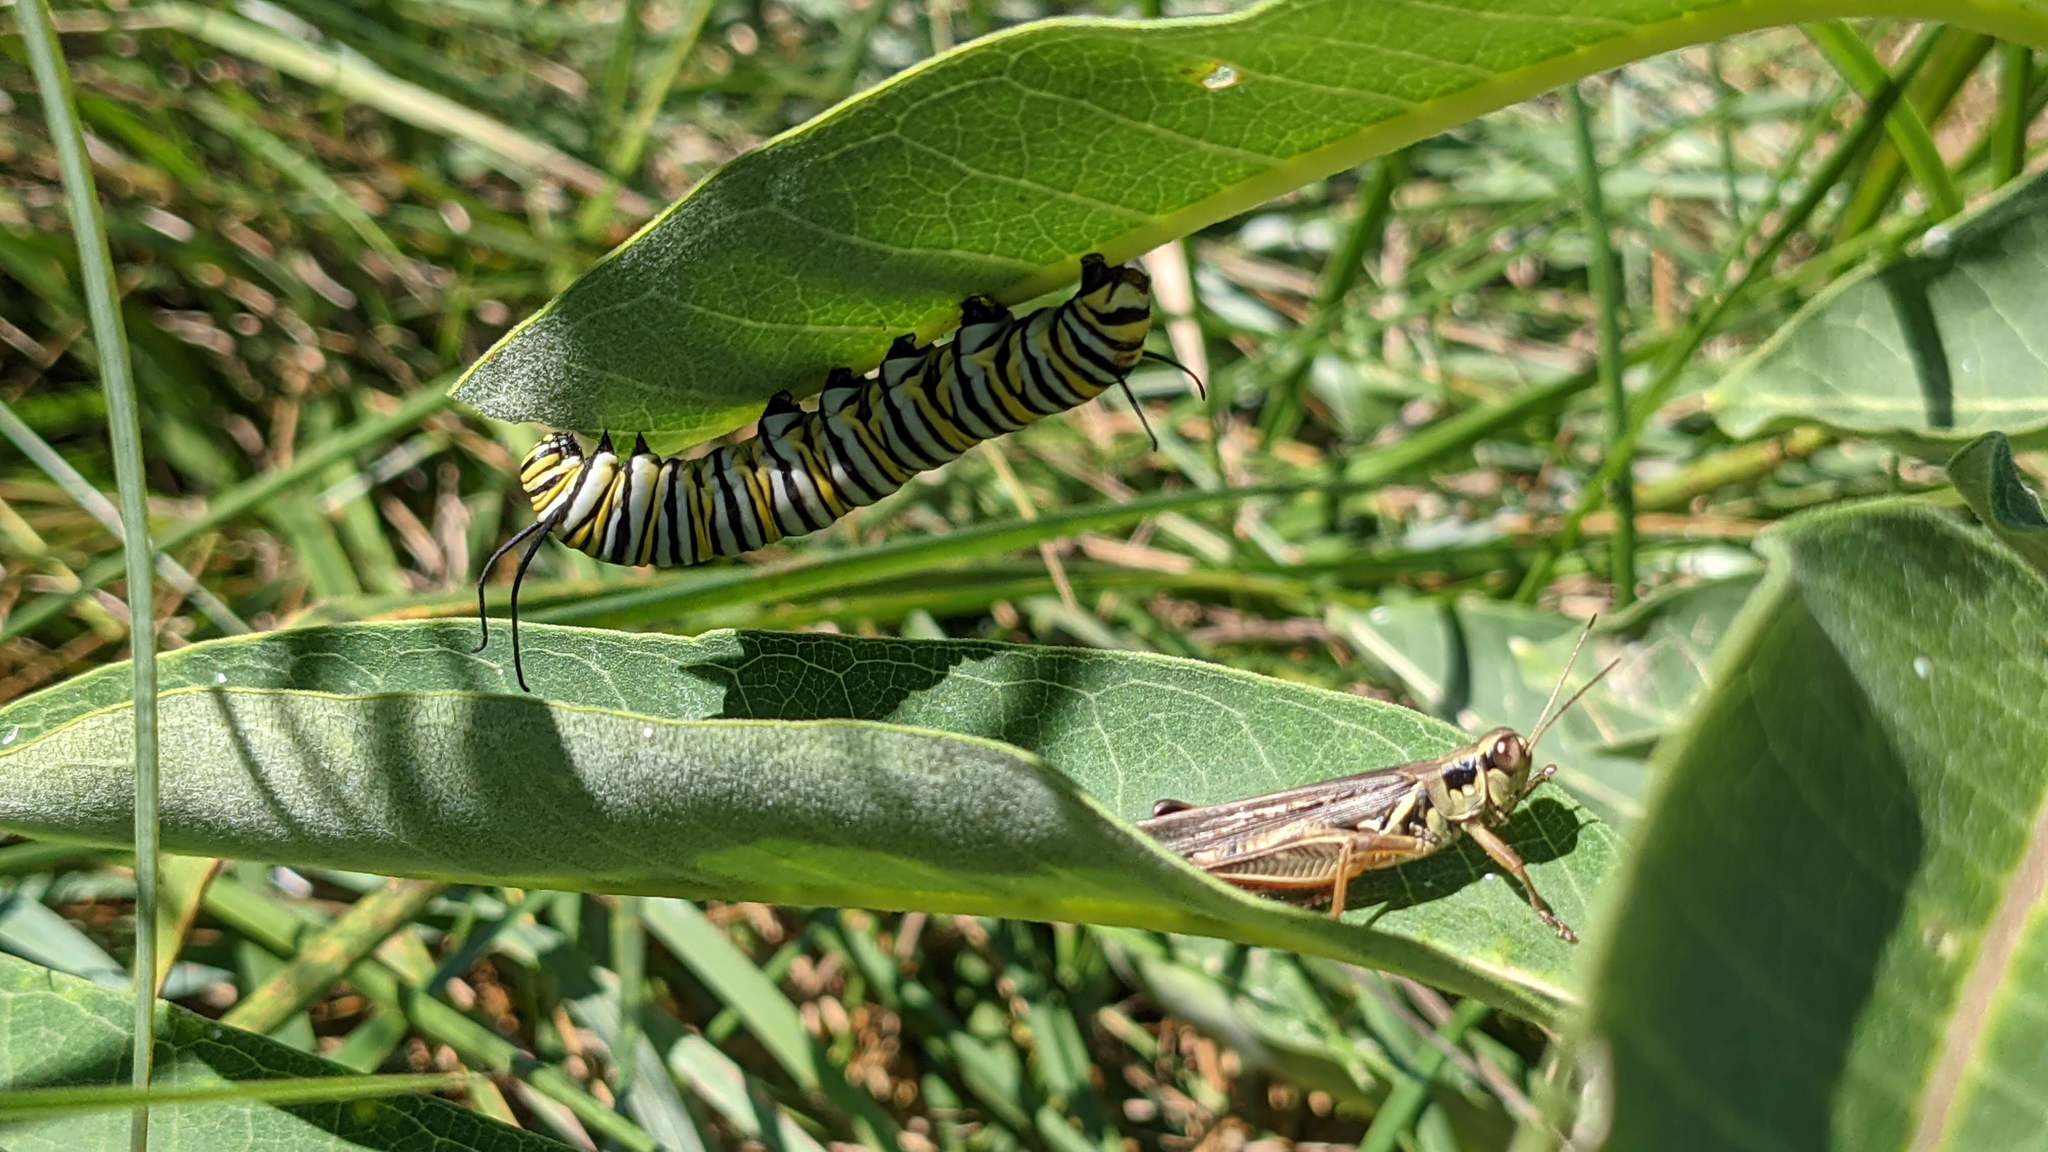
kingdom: Animalia
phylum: Arthropoda
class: Insecta
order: Lepidoptera
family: Nymphalidae
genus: Danaus
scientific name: Danaus plexippus
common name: Monarch
